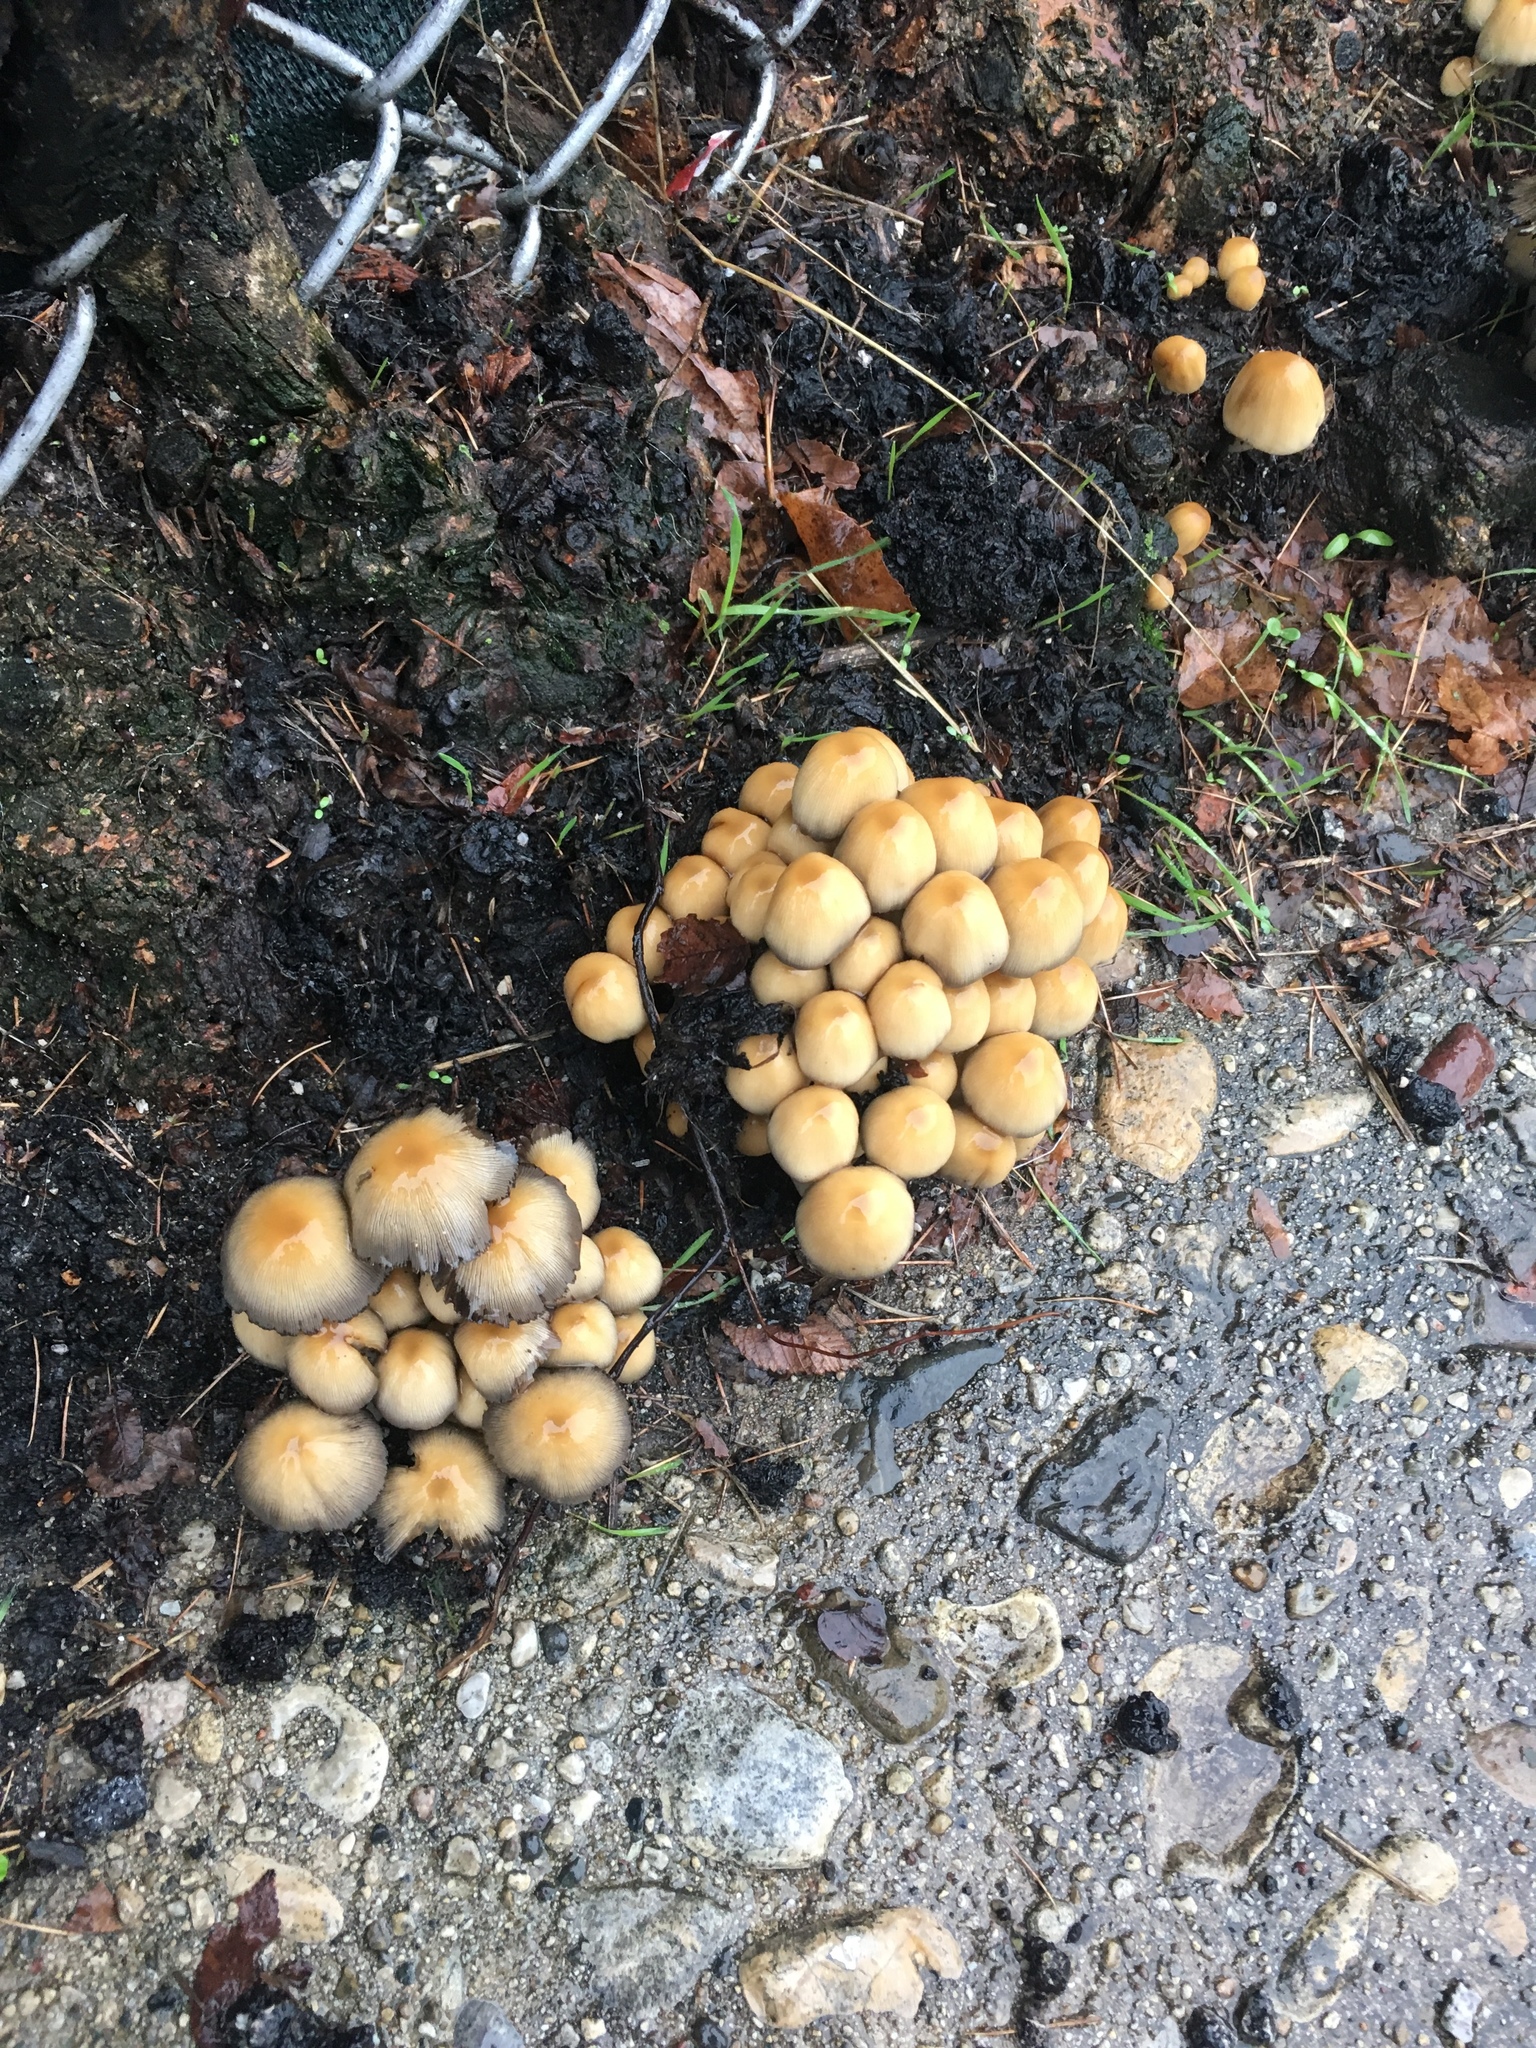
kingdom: Fungi
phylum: Basidiomycota
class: Agaricomycetes
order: Agaricales
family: Psathyrellaceae
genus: Coprinellus
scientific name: Coprinellus micaceus
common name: Glistening ink-cap
